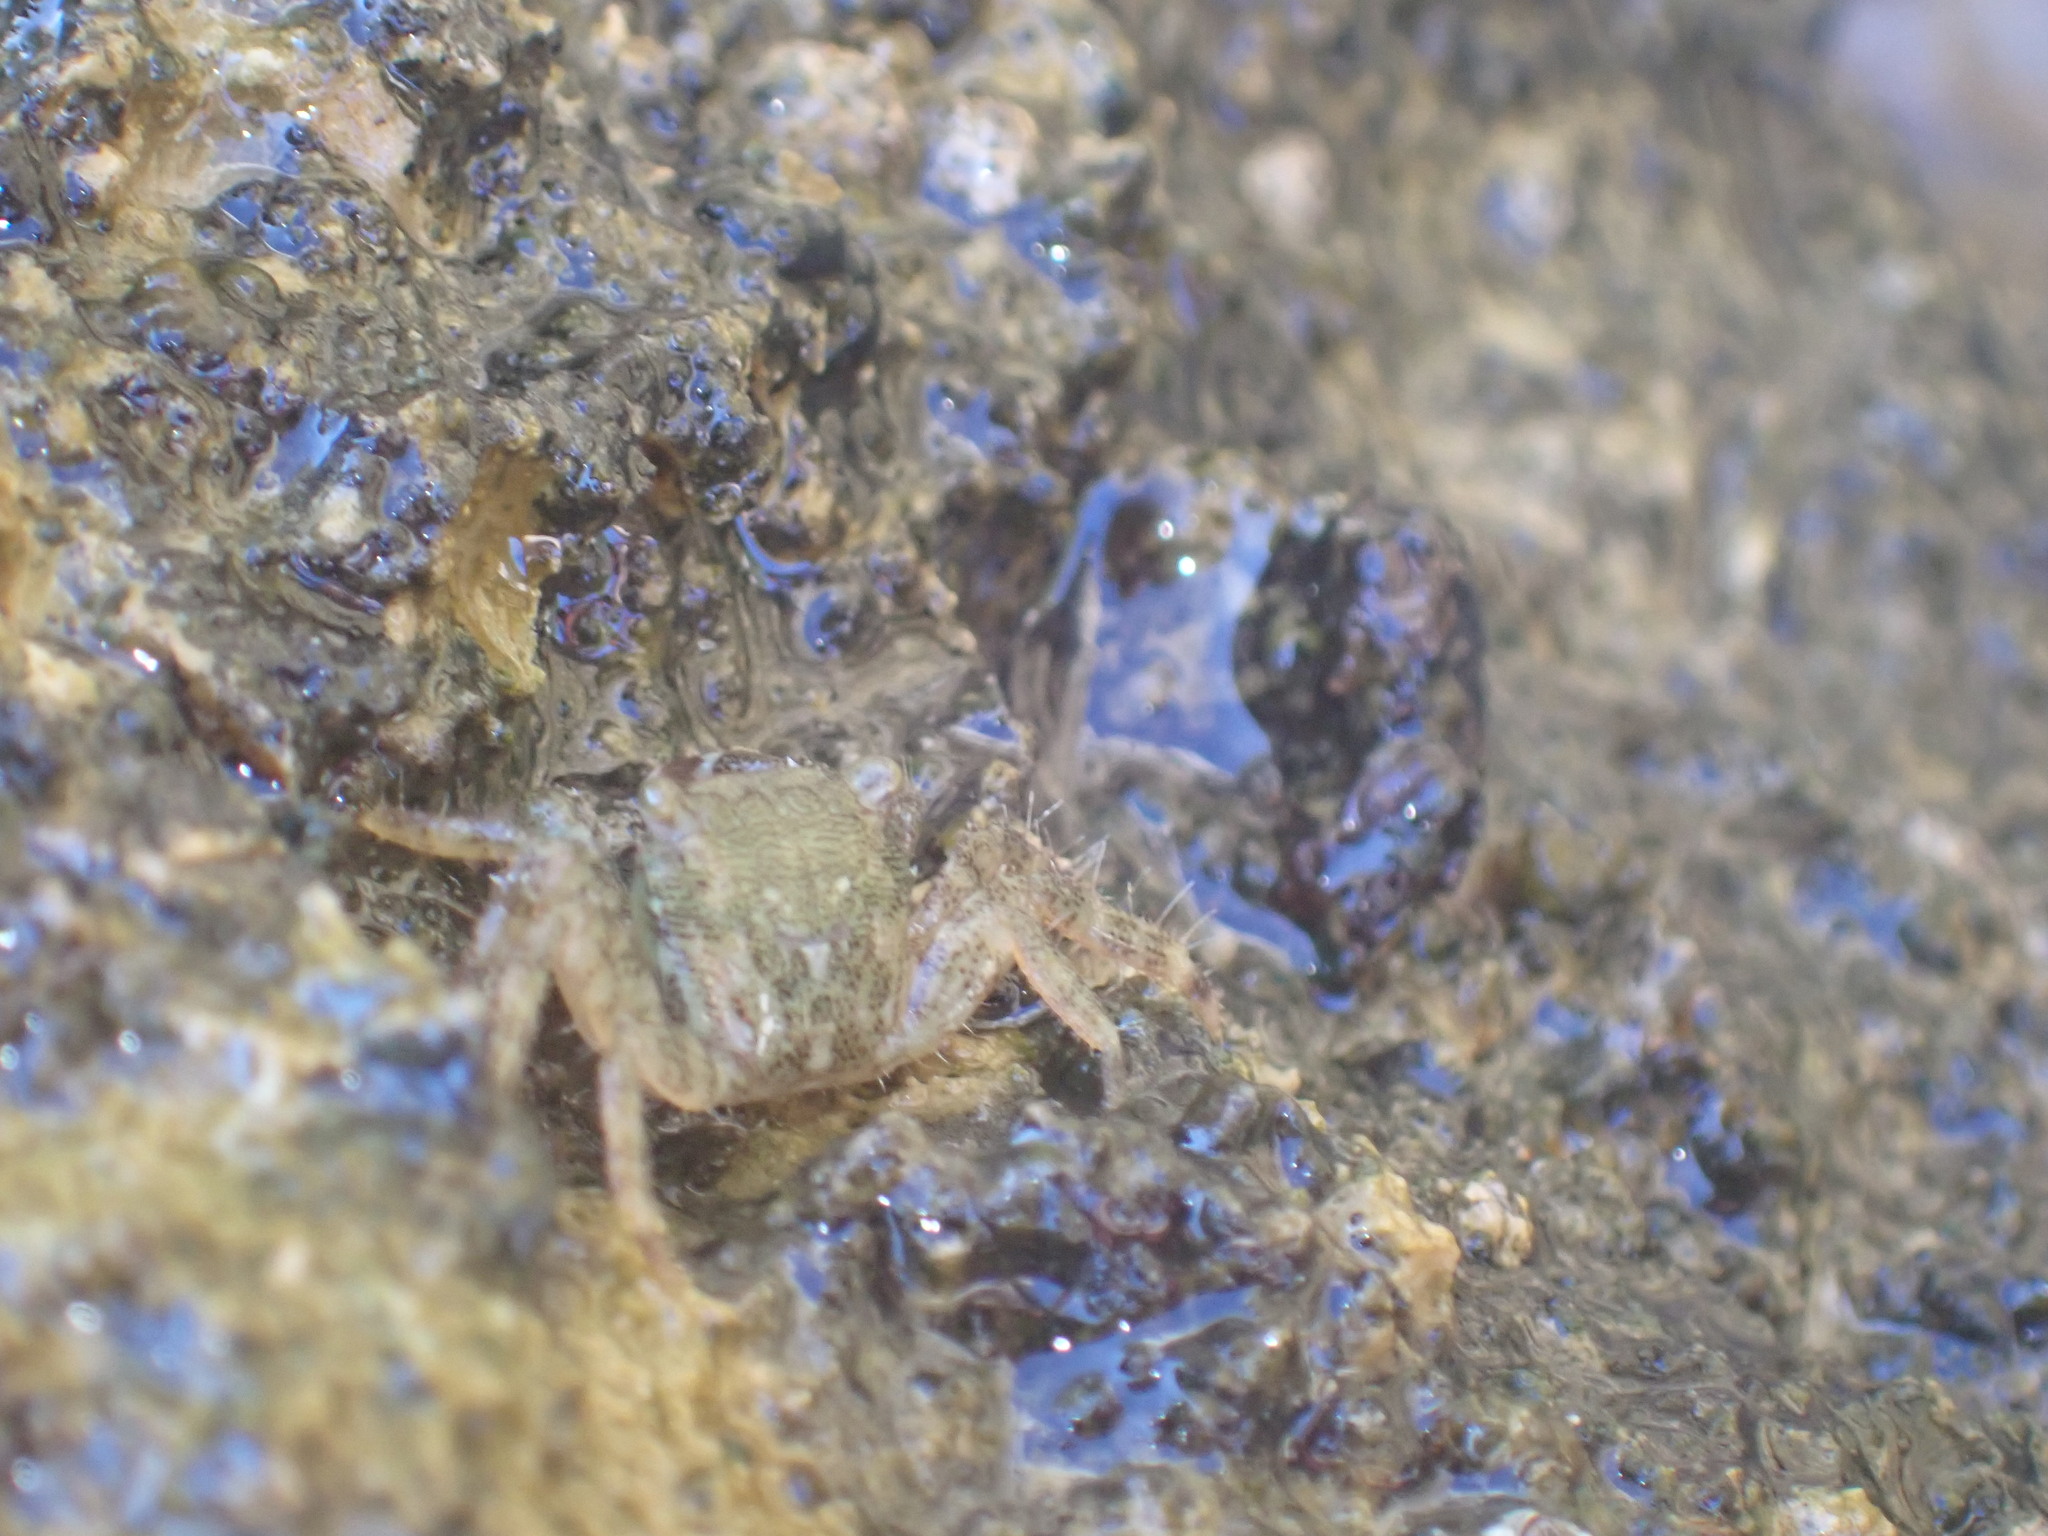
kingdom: Animalia
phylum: Arthropoda
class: Malacostraca
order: Decapoda
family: Grapsidae
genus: Pachygrapsus
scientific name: Pachygrapsus marmoratus
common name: Marbled rock crab
